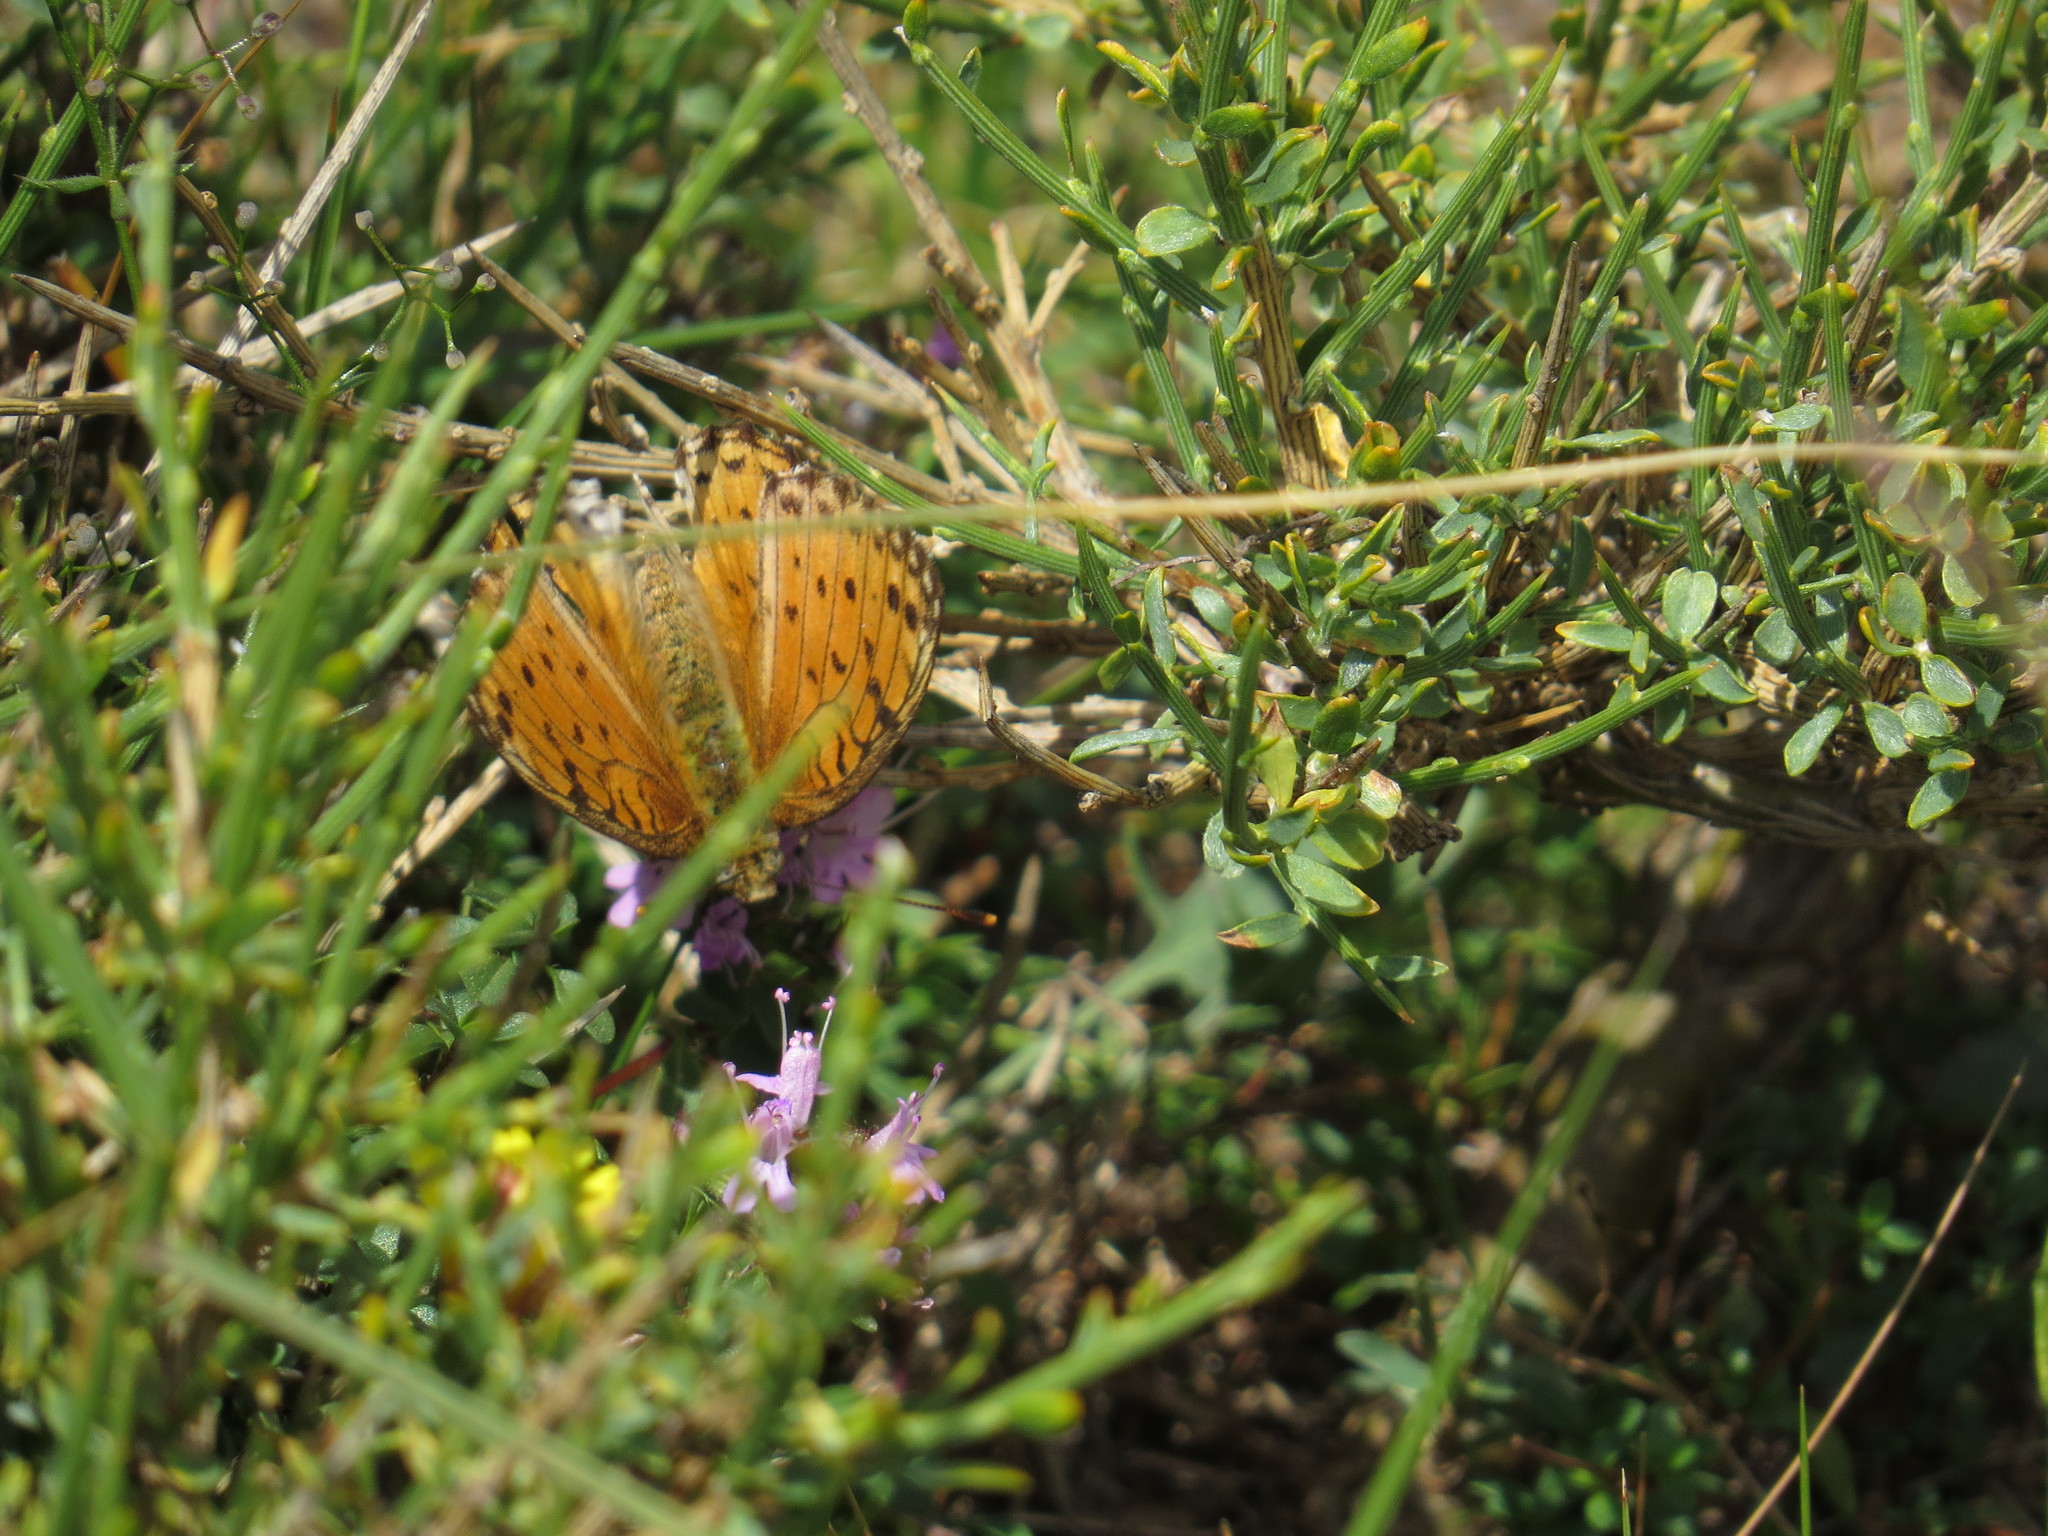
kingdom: Animalia
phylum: Arthropoda
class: Insecta
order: Lepidoptera
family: Nymphalidae
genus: Fabriciana
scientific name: Fabriciana niobe
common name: Niobe fritillary
